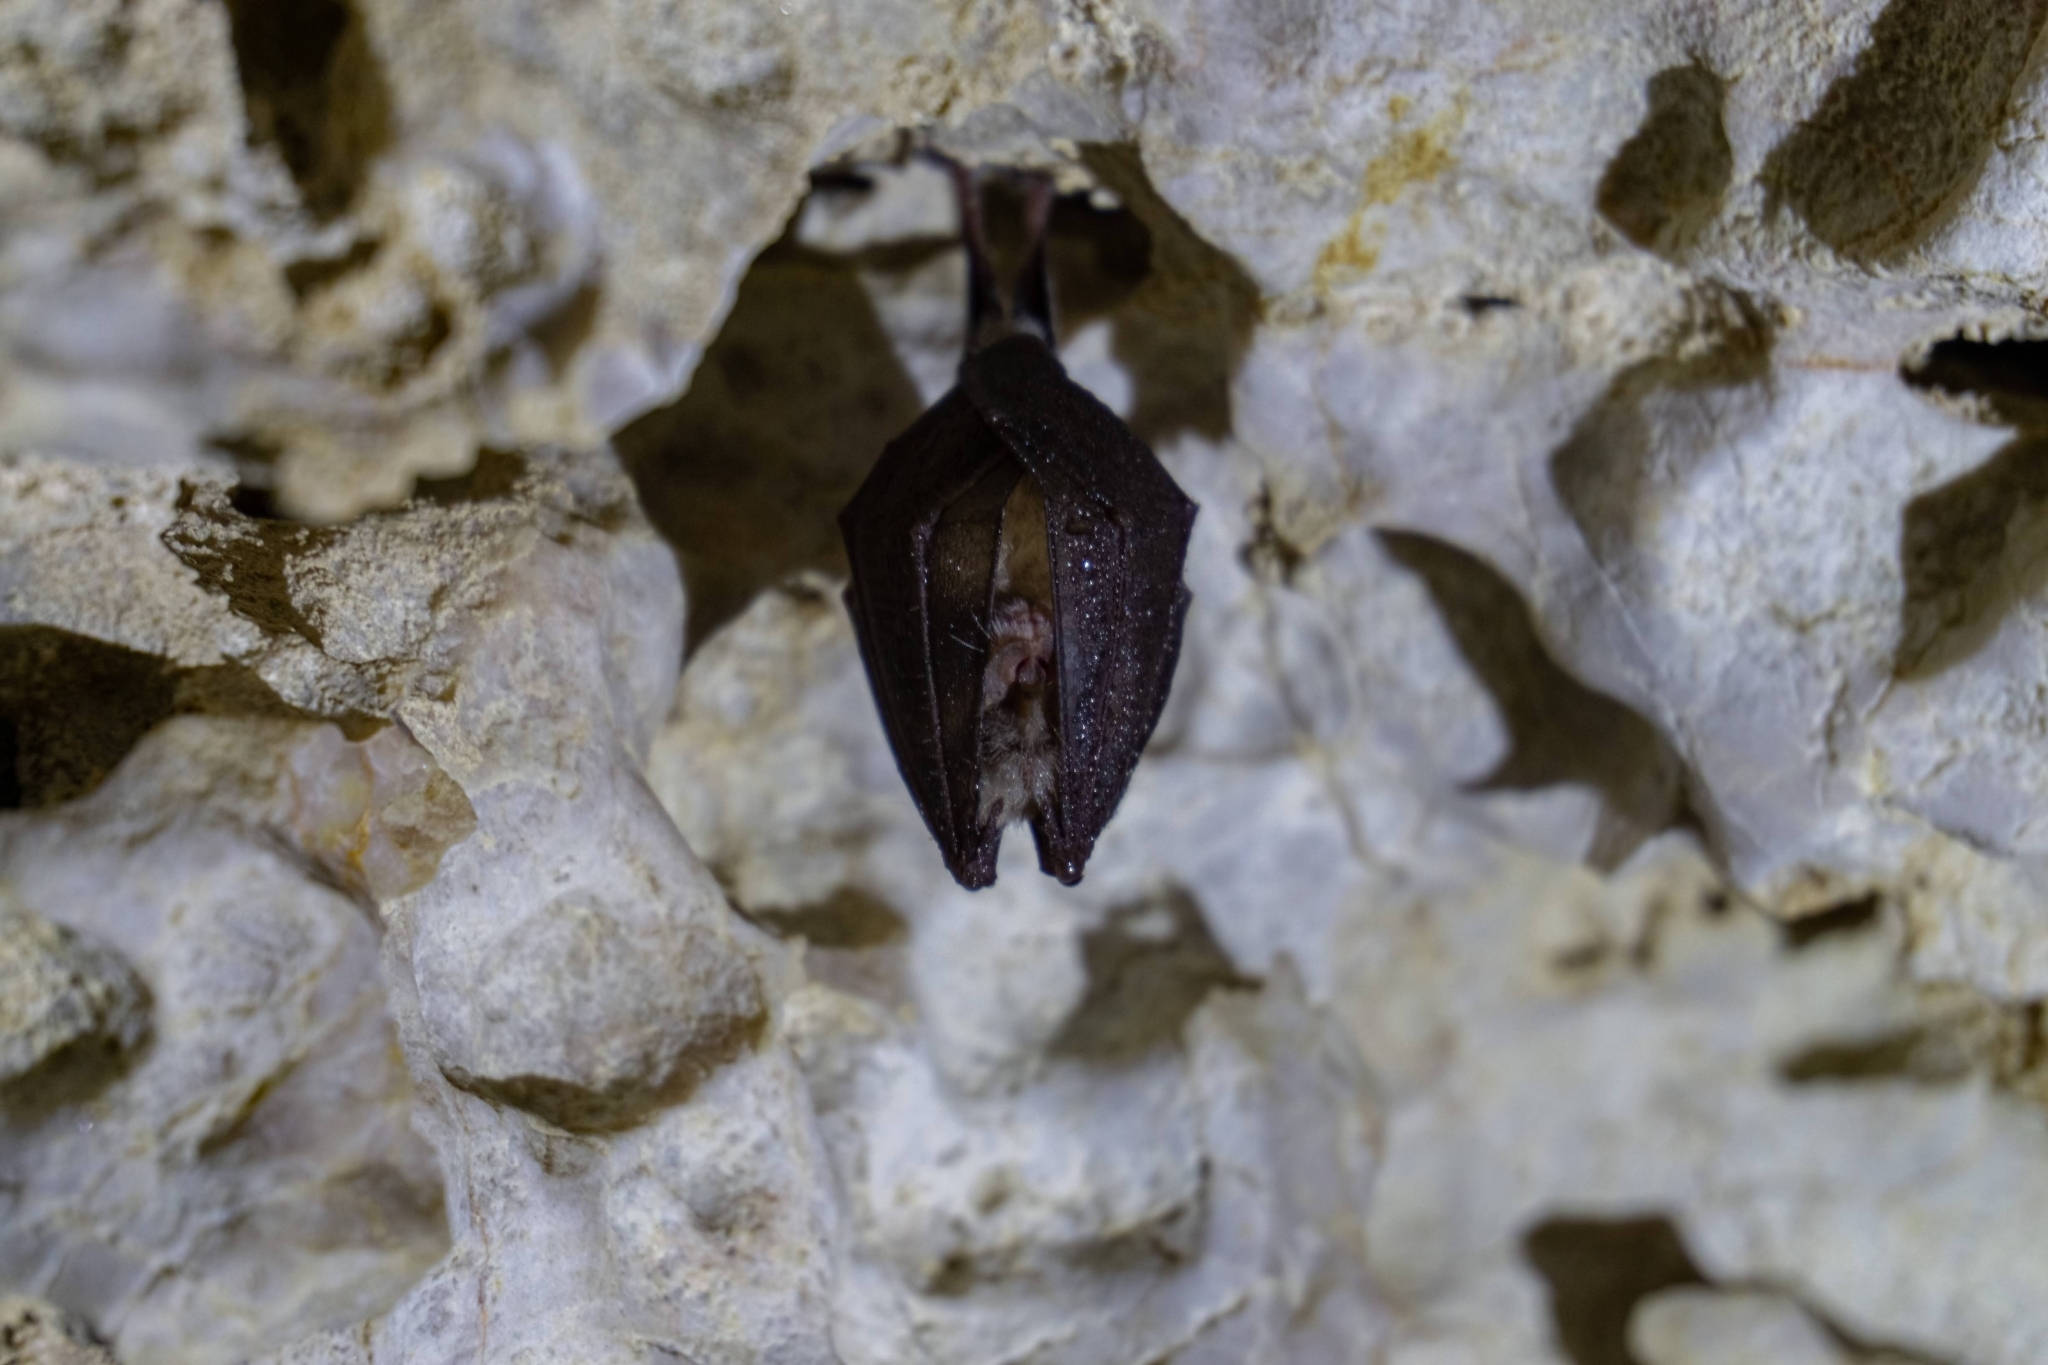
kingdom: Animalia
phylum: Chordata
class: Mammalia
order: Chiroptera
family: Rhinolophidae
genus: Rhinolophus
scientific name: Rhinolophus hipposideros
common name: Lesser horseshoe bat
